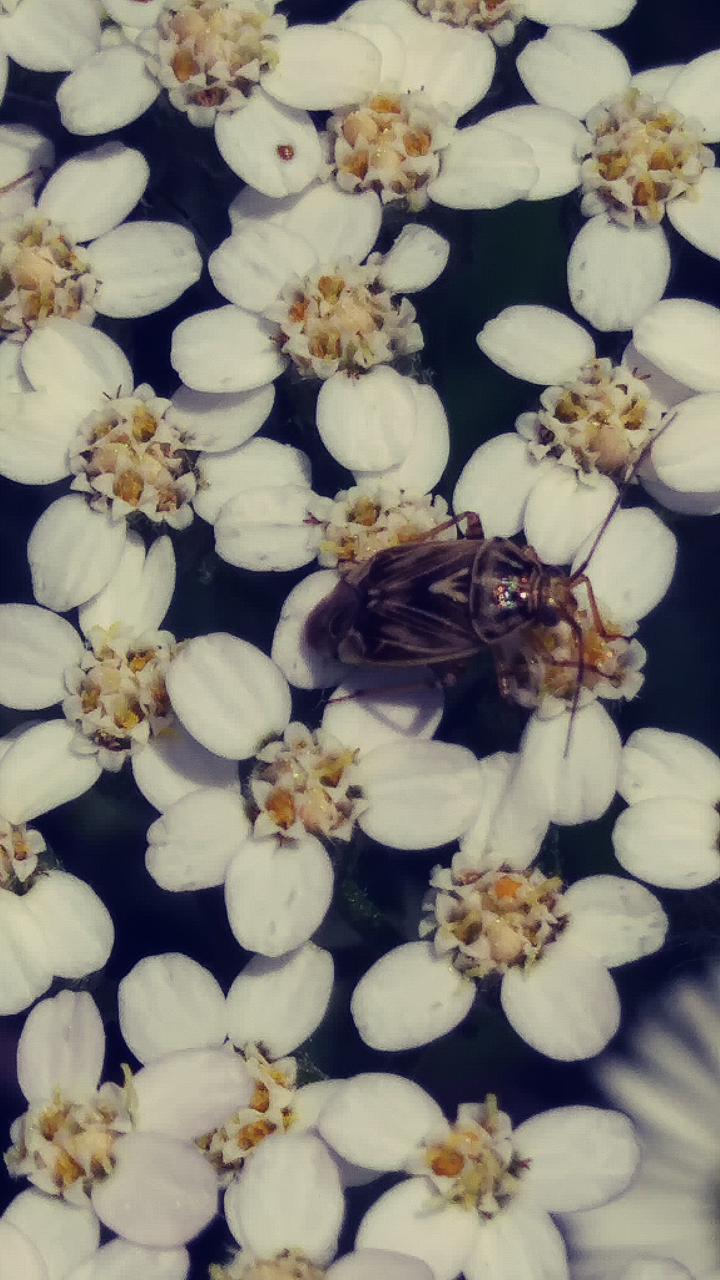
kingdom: Animalia
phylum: Arthropoda
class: Insecta
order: Hemiptera
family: Miridae
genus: Lygus
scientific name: Lygus lineolaris
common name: North american tarnished plant bug
